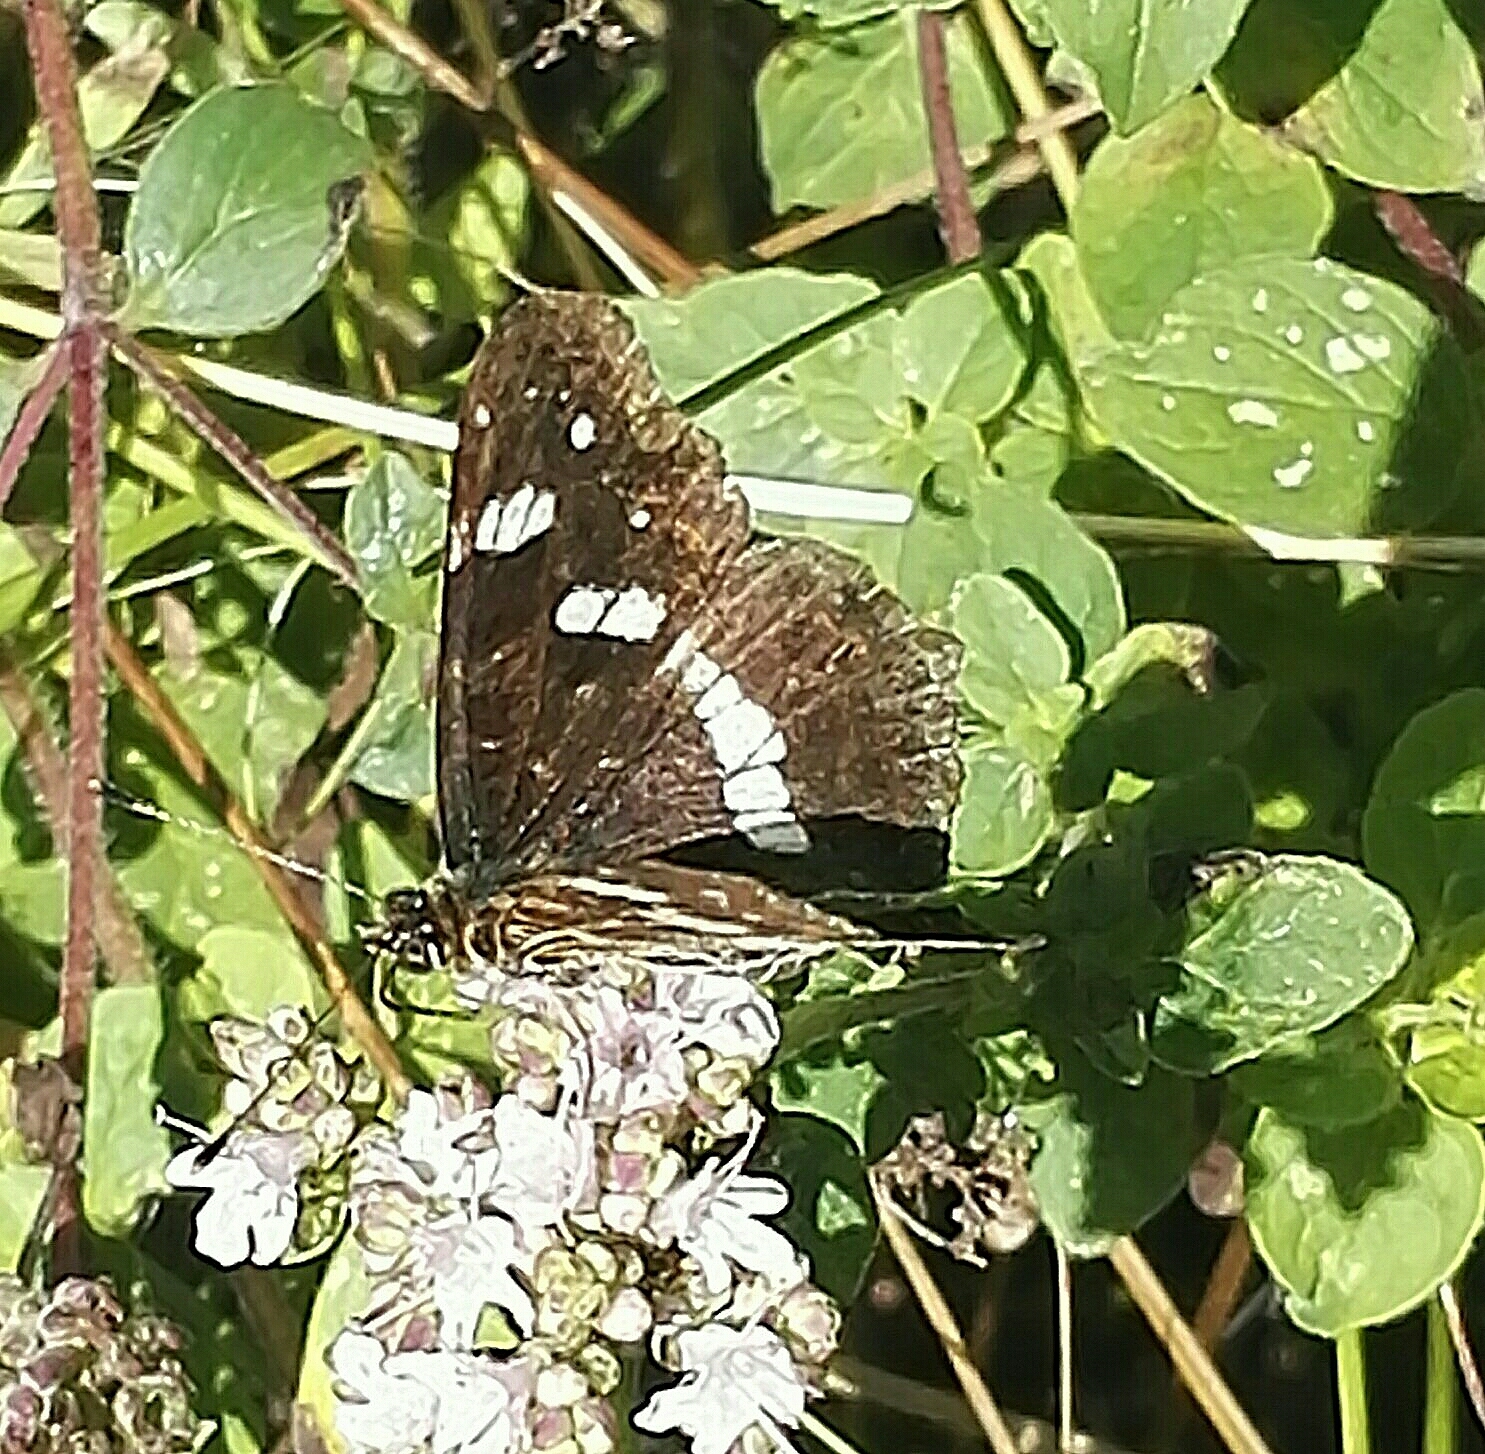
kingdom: Animalia
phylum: Arthropoda
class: Insecta
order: Lepidoptera
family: Nymphalidae
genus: Araschnia
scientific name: Araschnia levana
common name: Map butterfly
